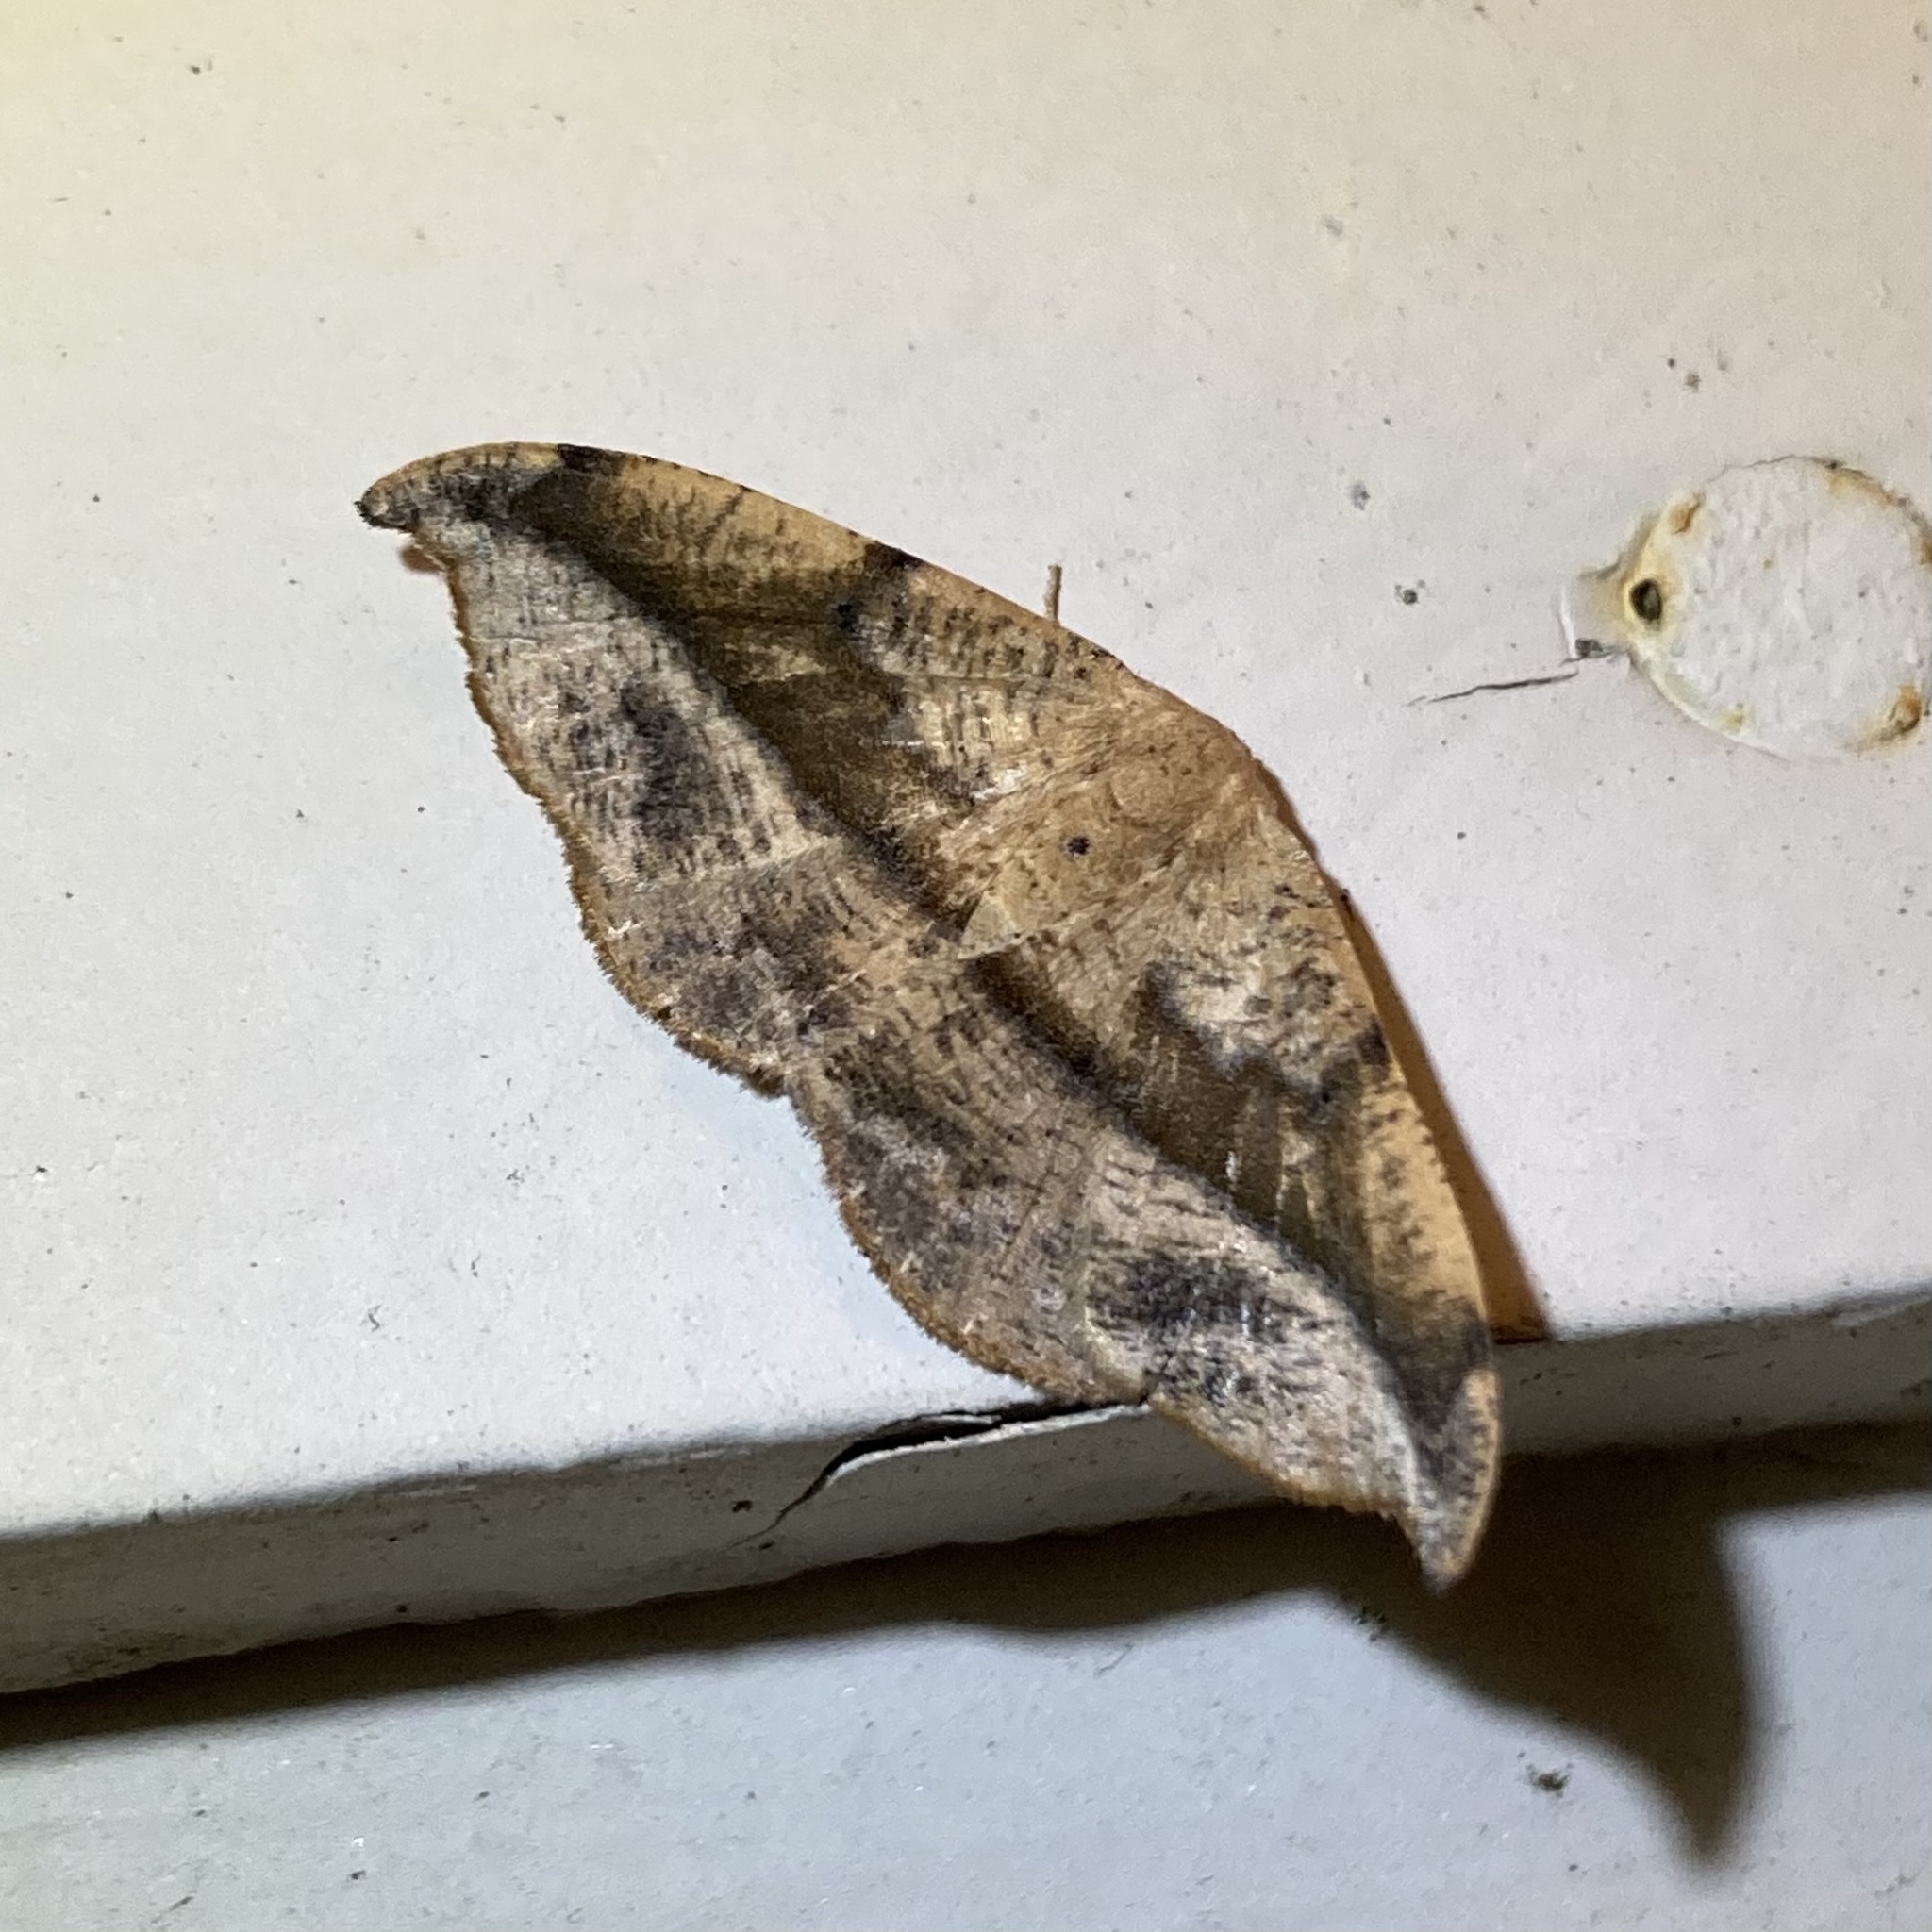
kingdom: Animalia
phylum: Arthropoda
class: Insecta
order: Lepidoptera
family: Geometridae
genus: Patalene
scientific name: Patalene olyzonaria
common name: Juniper geometer moth
